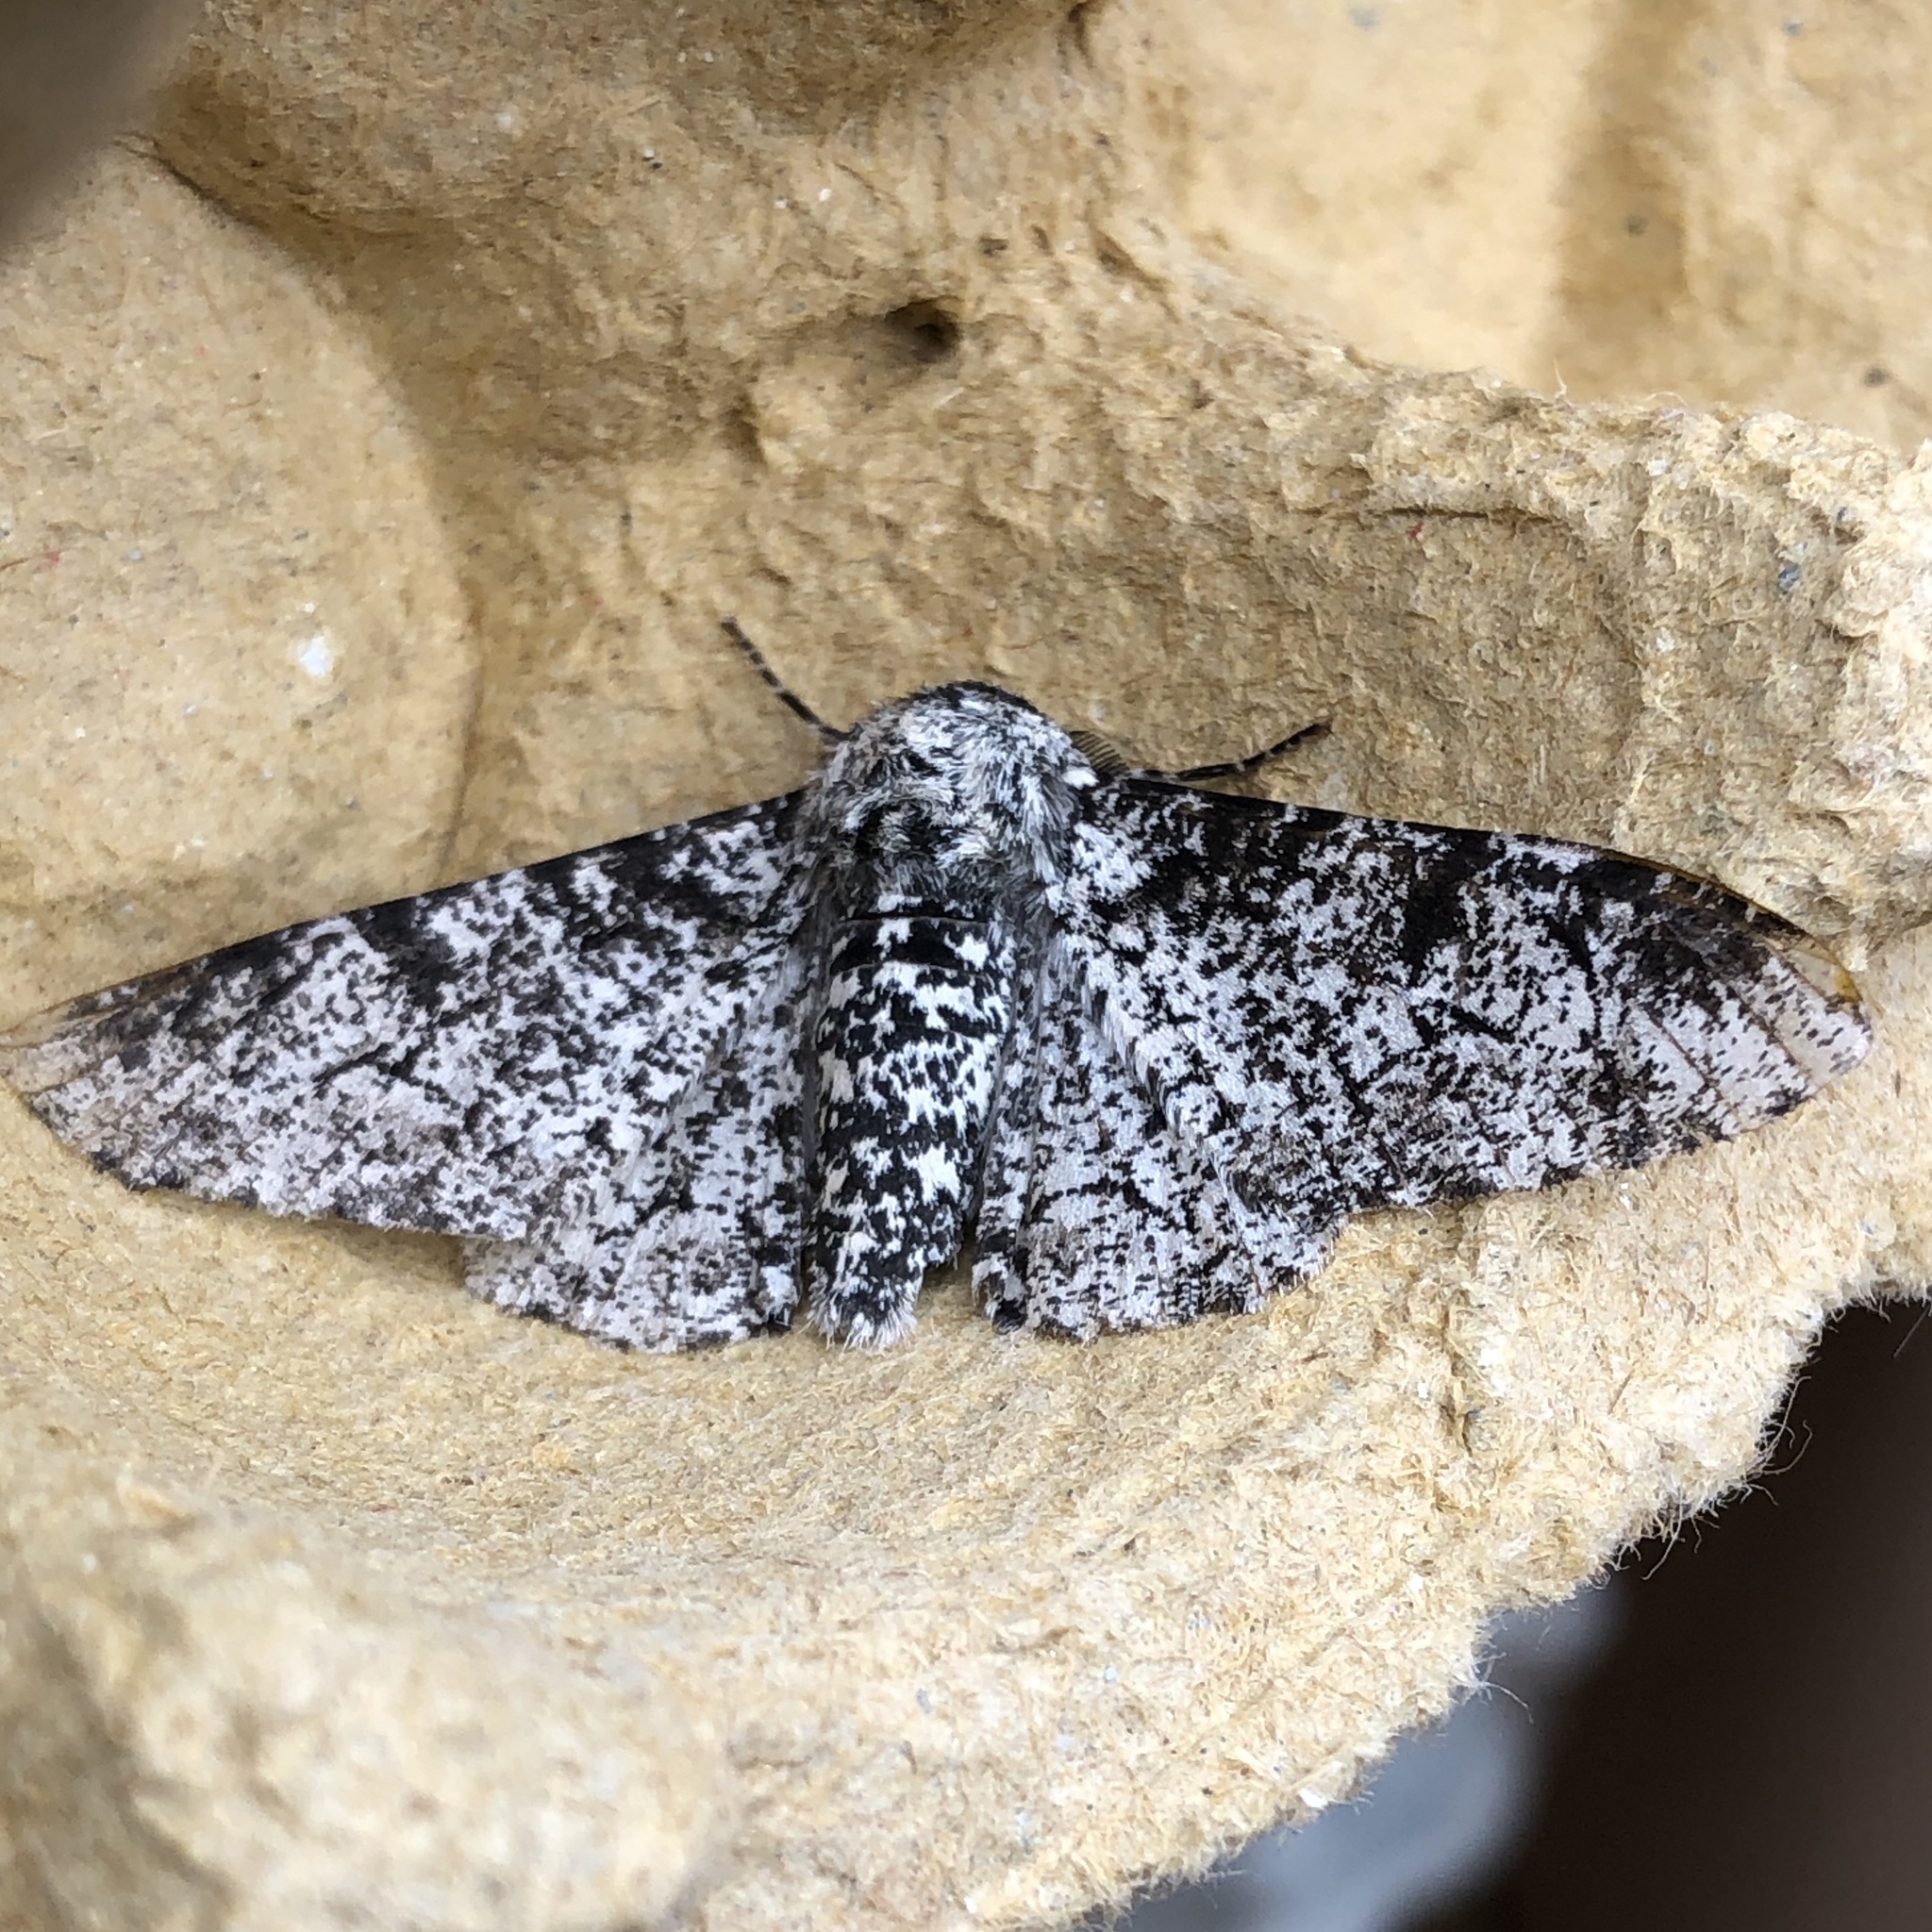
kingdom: Animalia
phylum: Arthropoda
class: Insecta
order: Lepidoptera
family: Geometridae
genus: Biston
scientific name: Biston betularia
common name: Peppered moth
